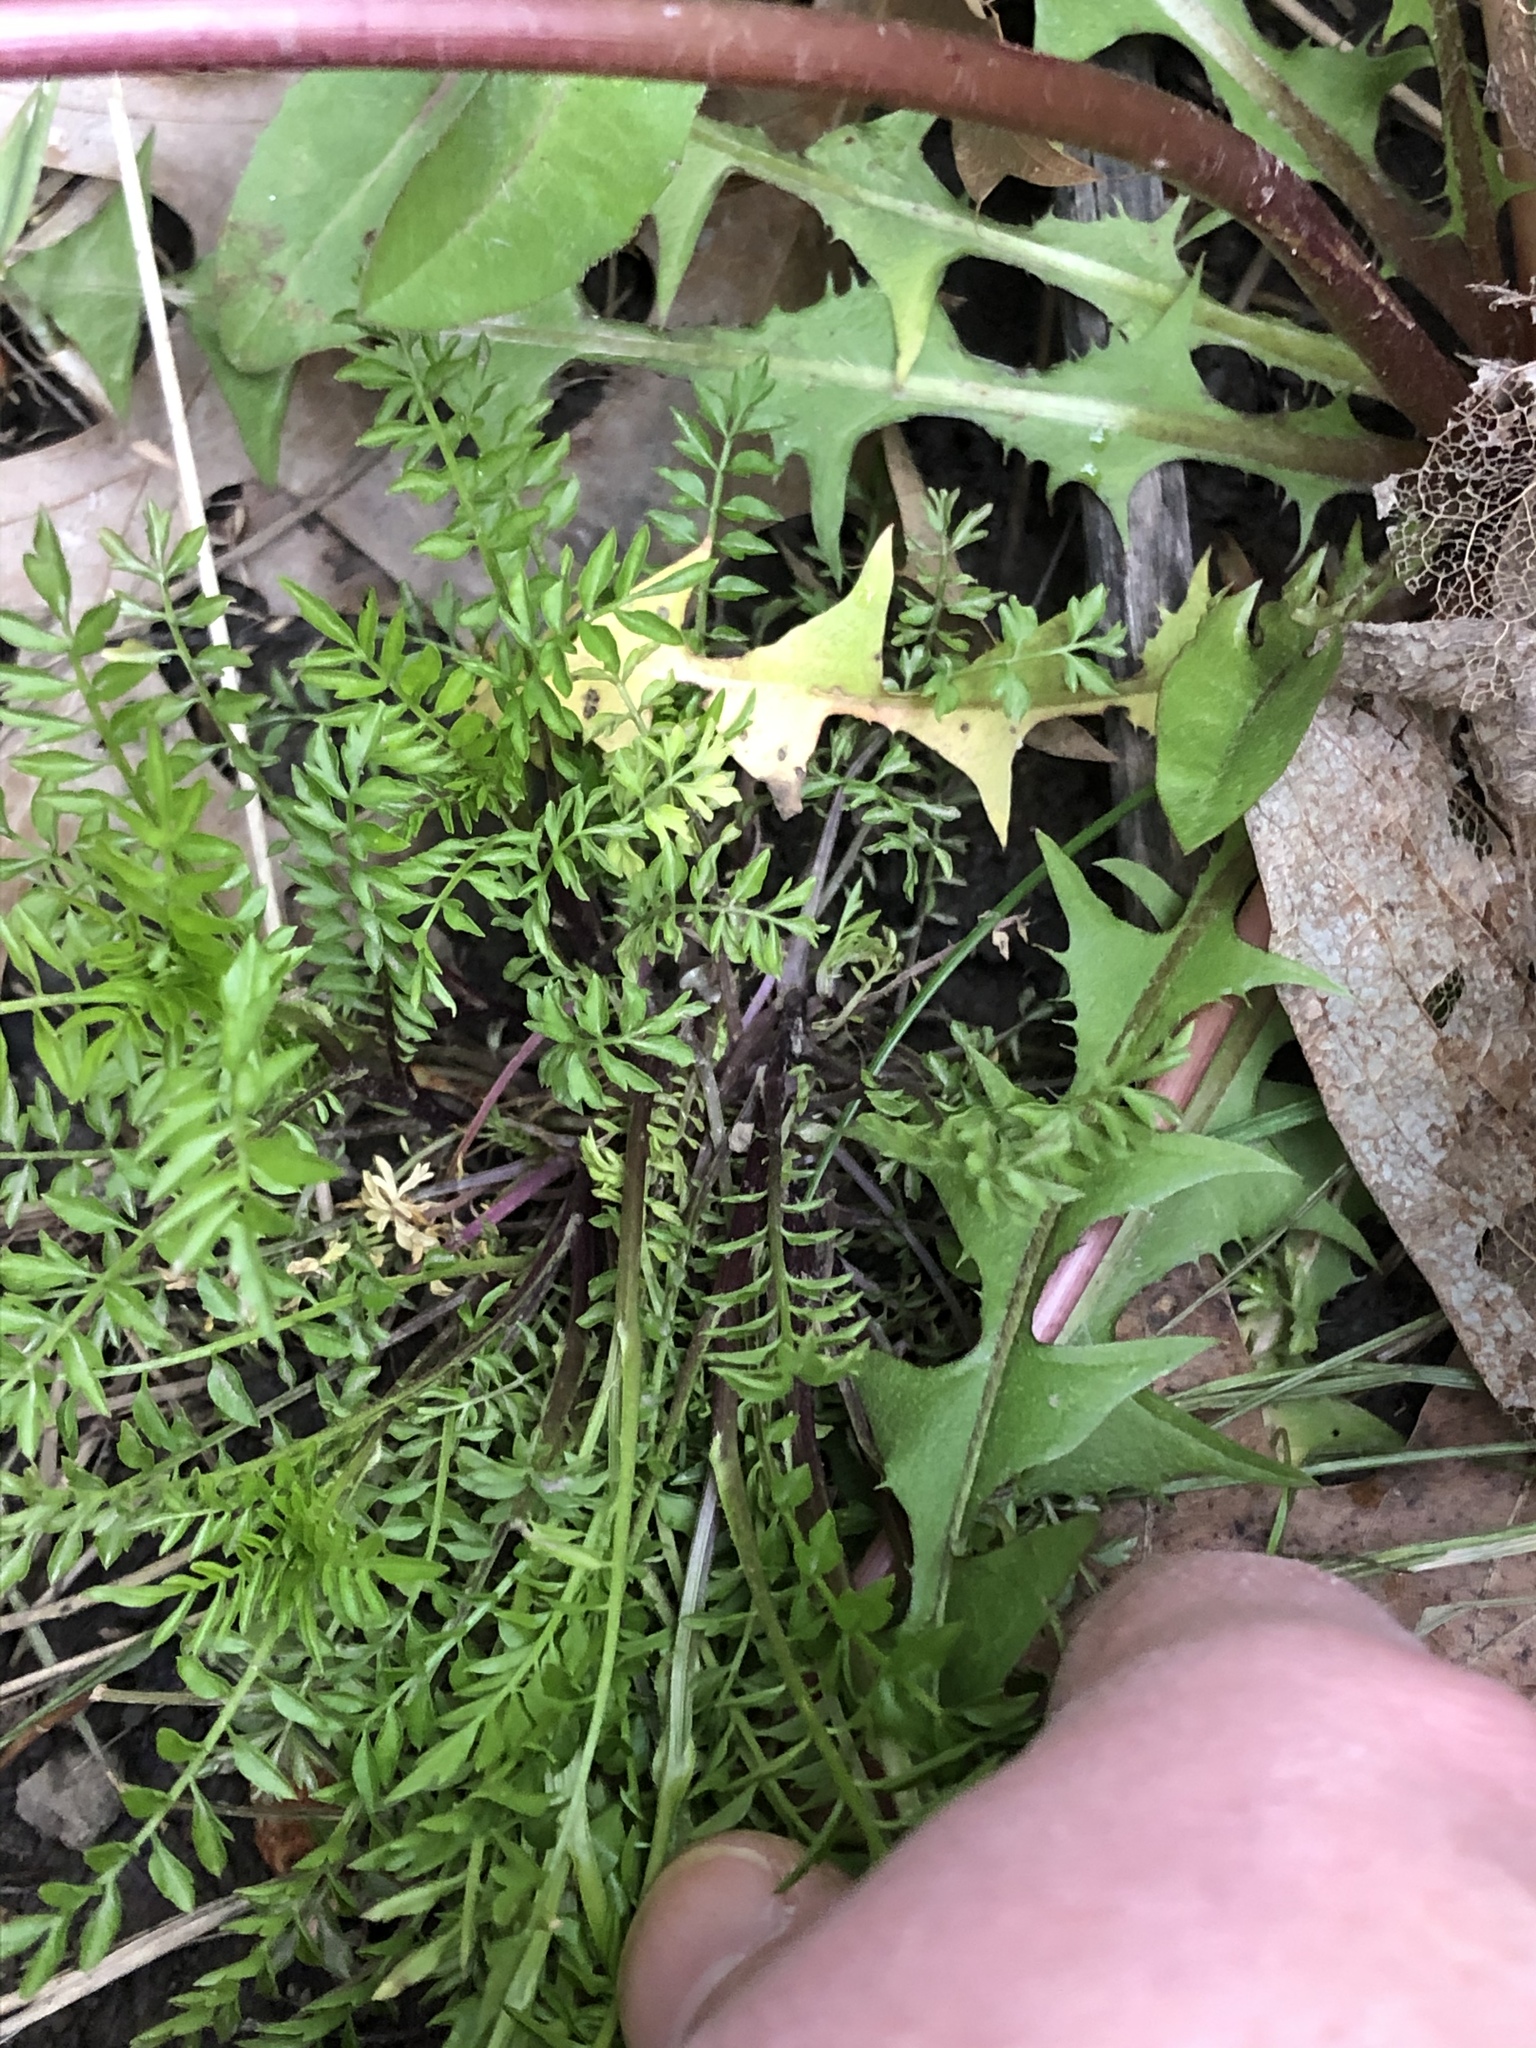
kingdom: Plantae
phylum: Tracheophyta
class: Magnoliopsida
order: Brassicales
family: Brassicaceae
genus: Cardamine
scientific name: Cardamine impatiens
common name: Narrow-leaved bitter-cress
